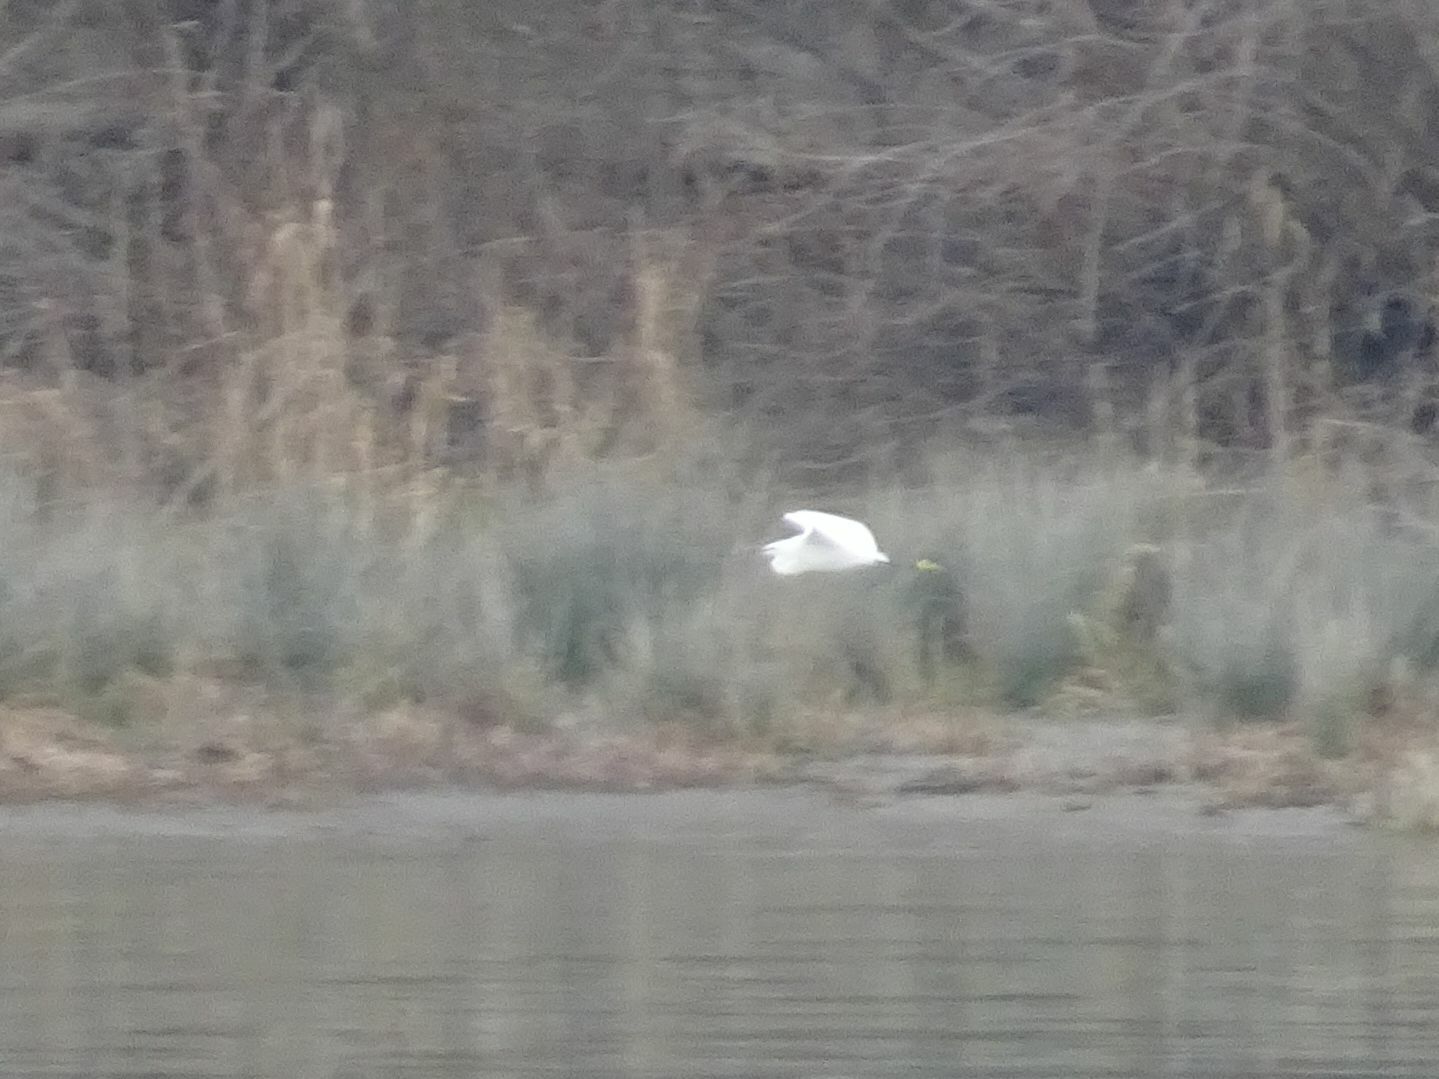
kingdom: Animalia
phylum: Chordata
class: Aves
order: Pelecaniformes
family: Ardeidae
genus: Egretta
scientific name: Egretta garzetta
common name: Little egret
